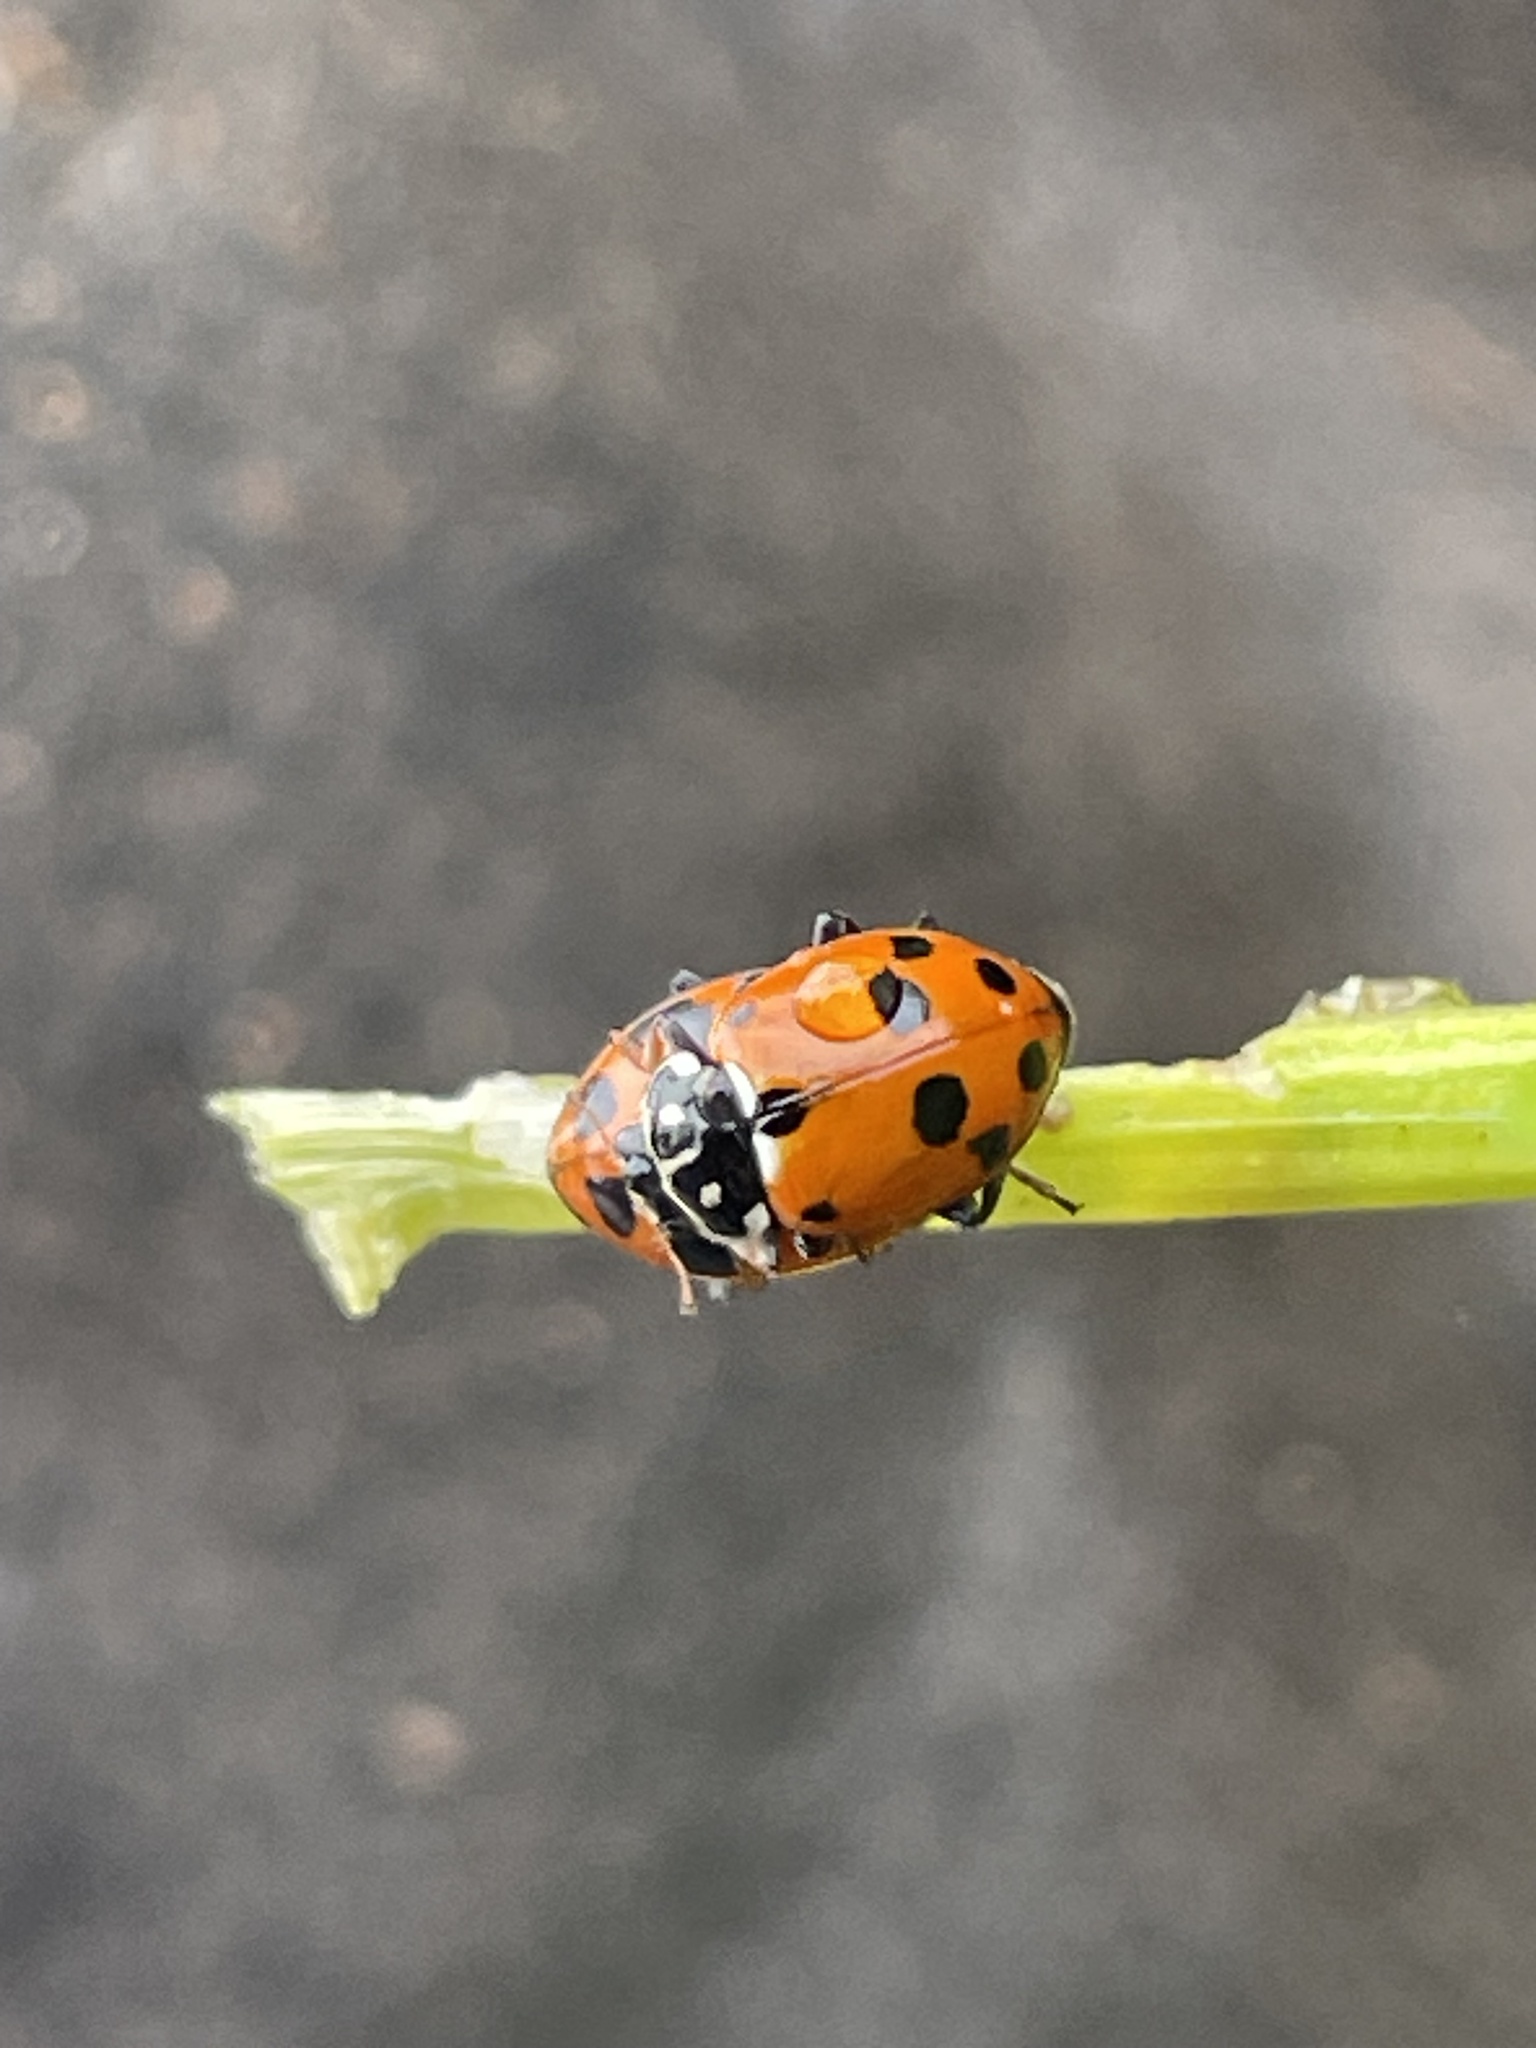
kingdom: Animalia
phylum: Arthropoda
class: Insecta
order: Coleoptera
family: Coccinellidae
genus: Hippodamia
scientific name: Hippodamia variegata
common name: Ladybird beetle
